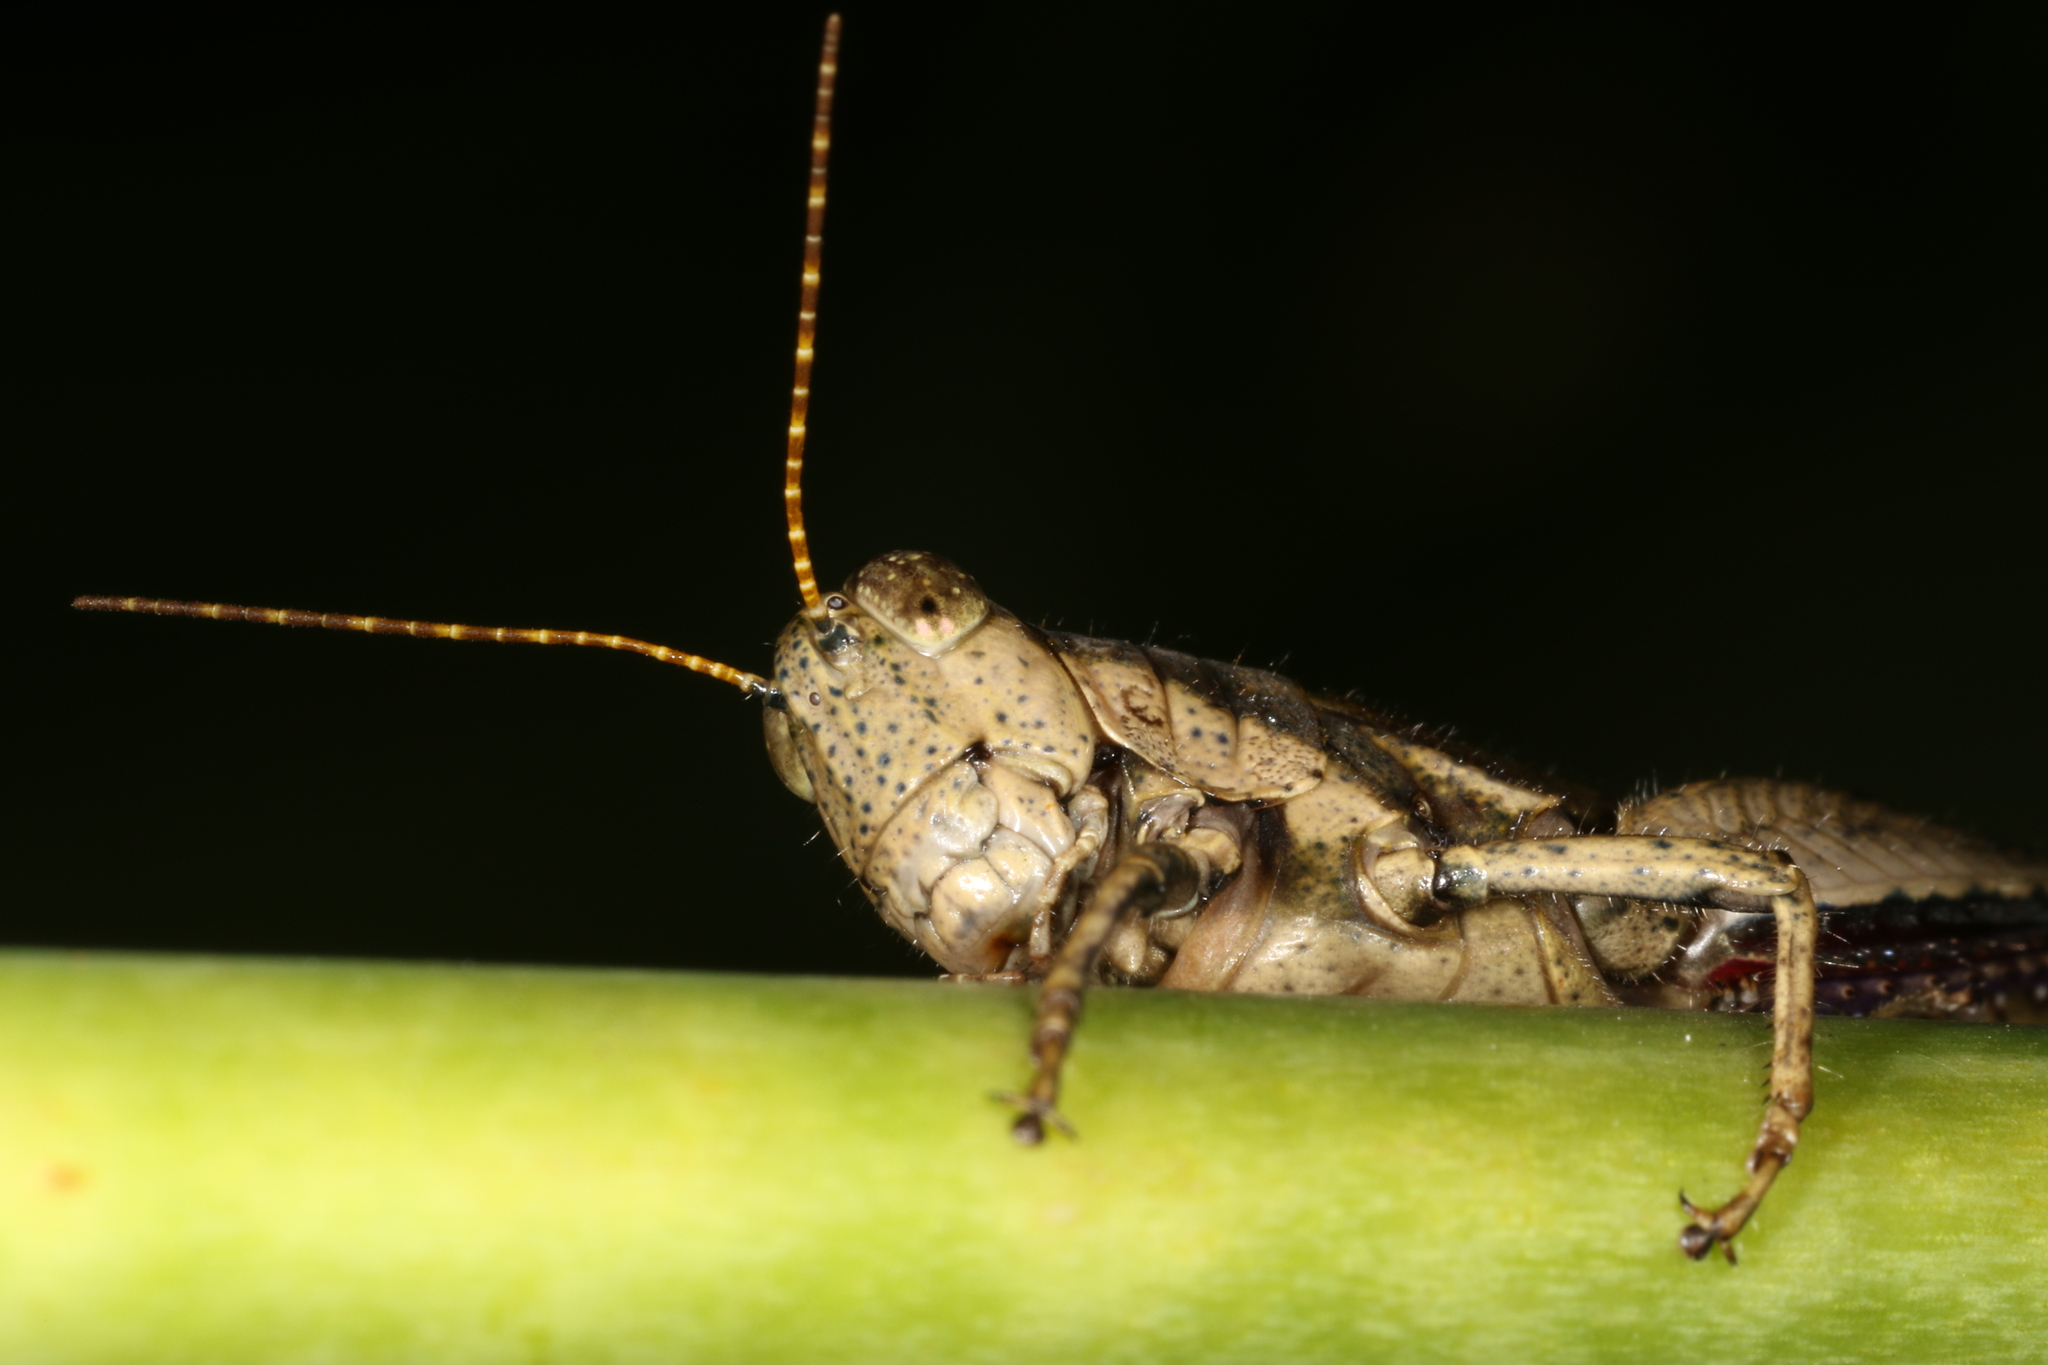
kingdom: Animalia
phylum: Arthropoda
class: Insecta
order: Orthoptera
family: Acrididae
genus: Ronderosia
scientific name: Ronderosia bergii
